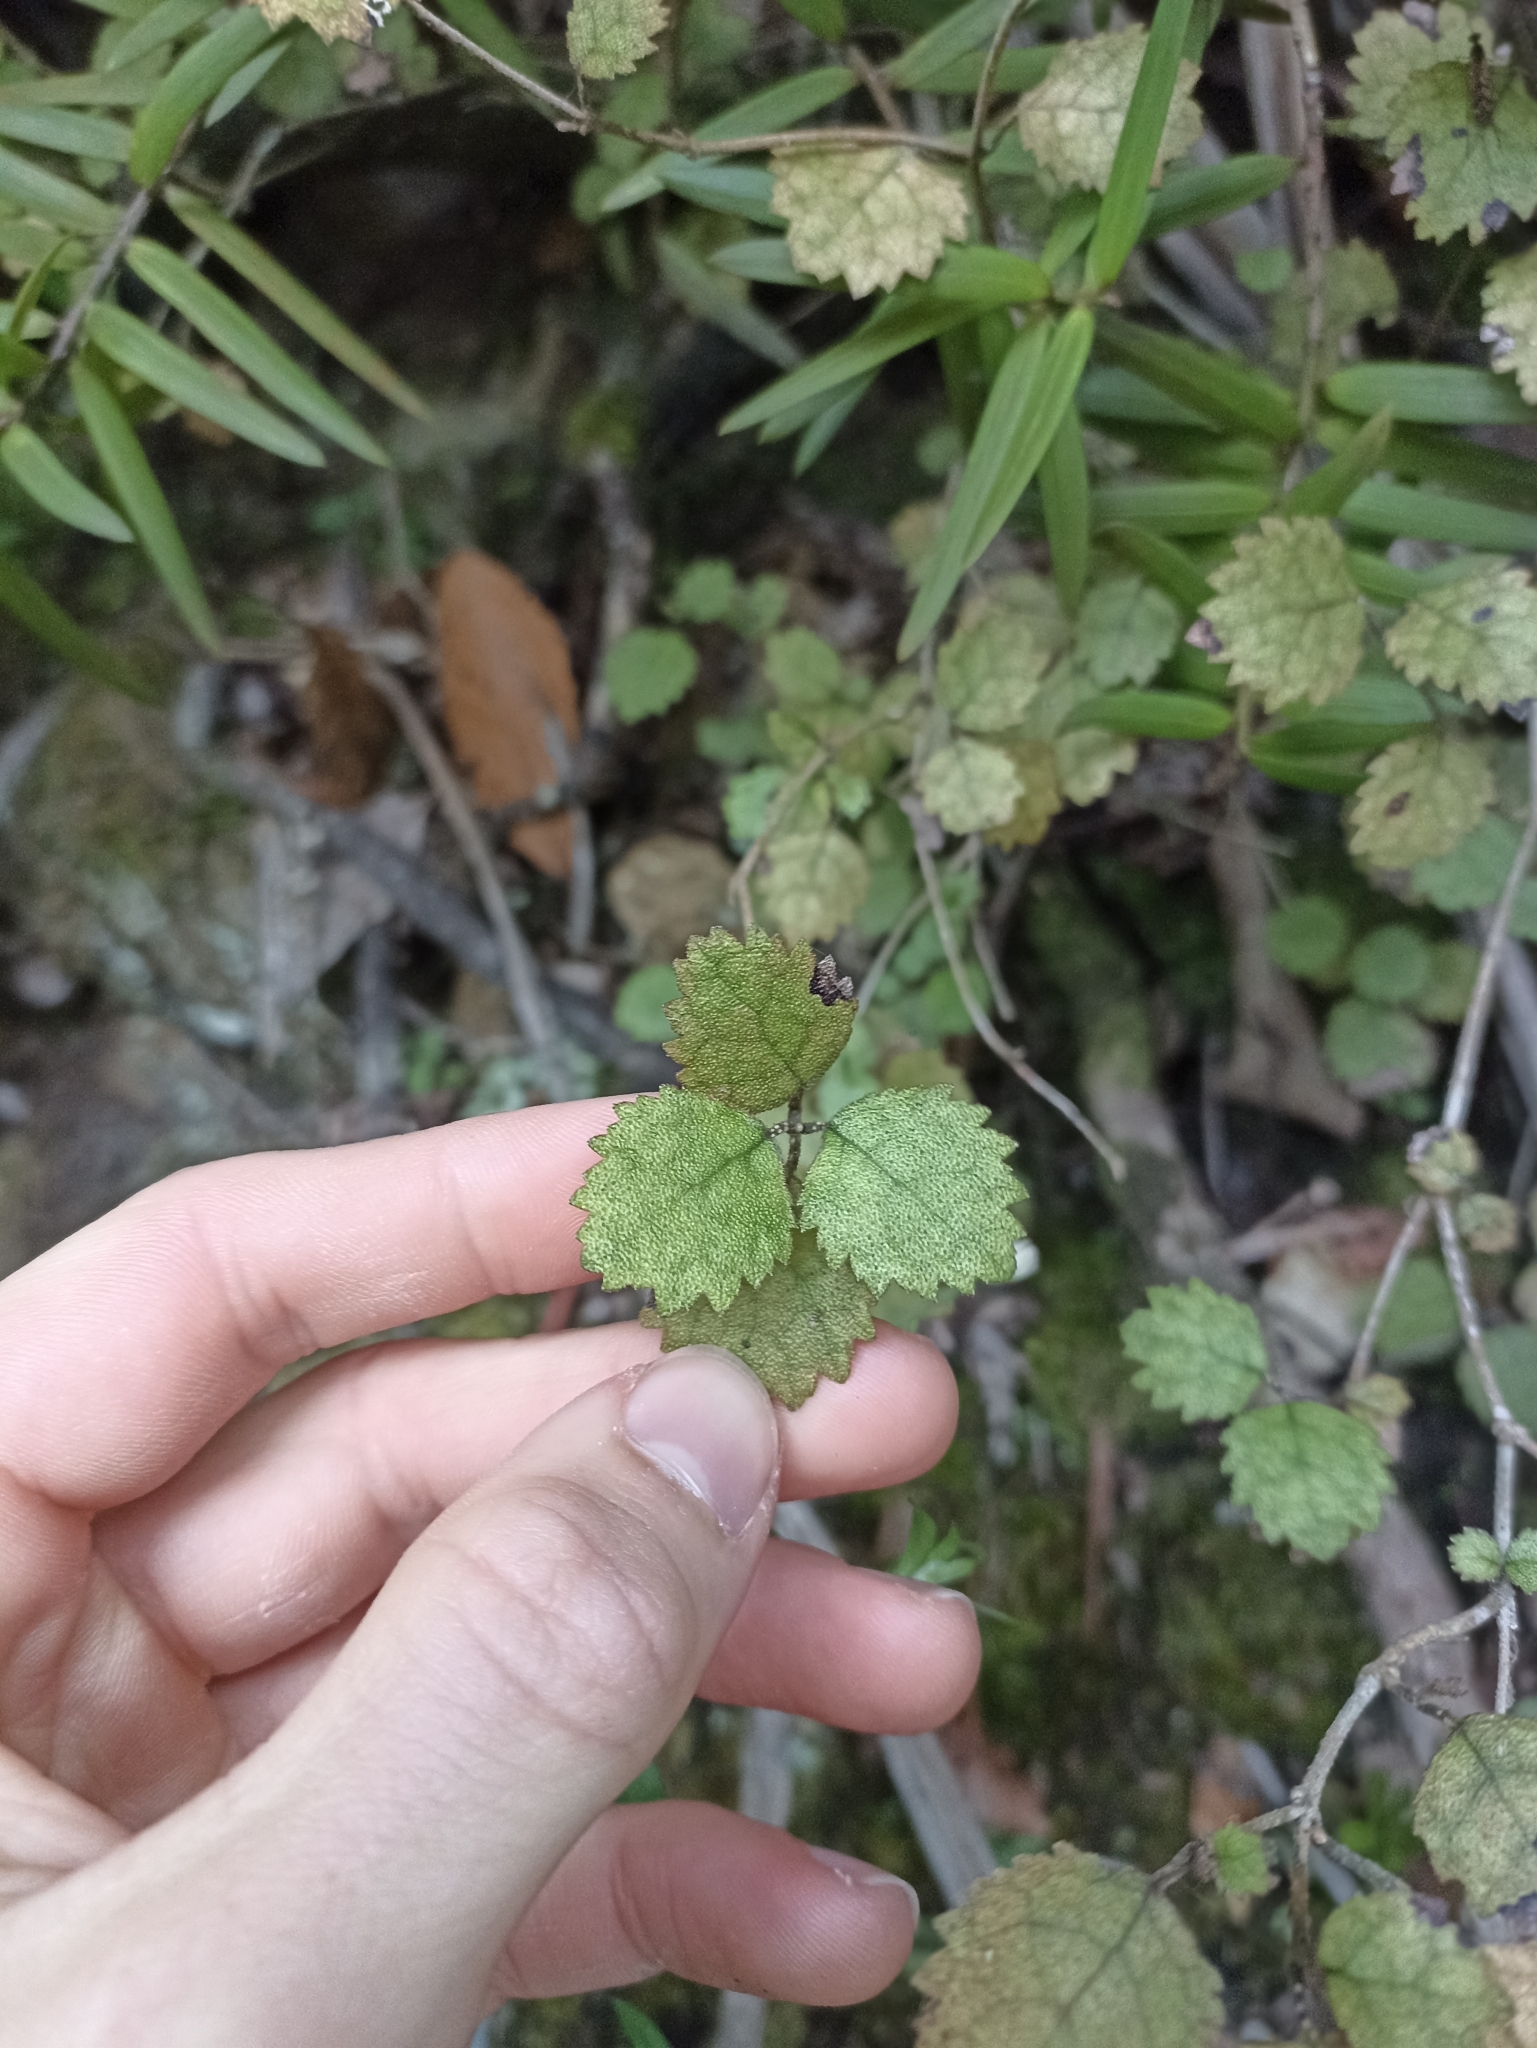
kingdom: Plantae
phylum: Tracheophyta
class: Magnoliopsida
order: Lamiales
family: Gesneriaceae
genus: Rhabdothamnus
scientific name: Rhabdothamnus solandri
